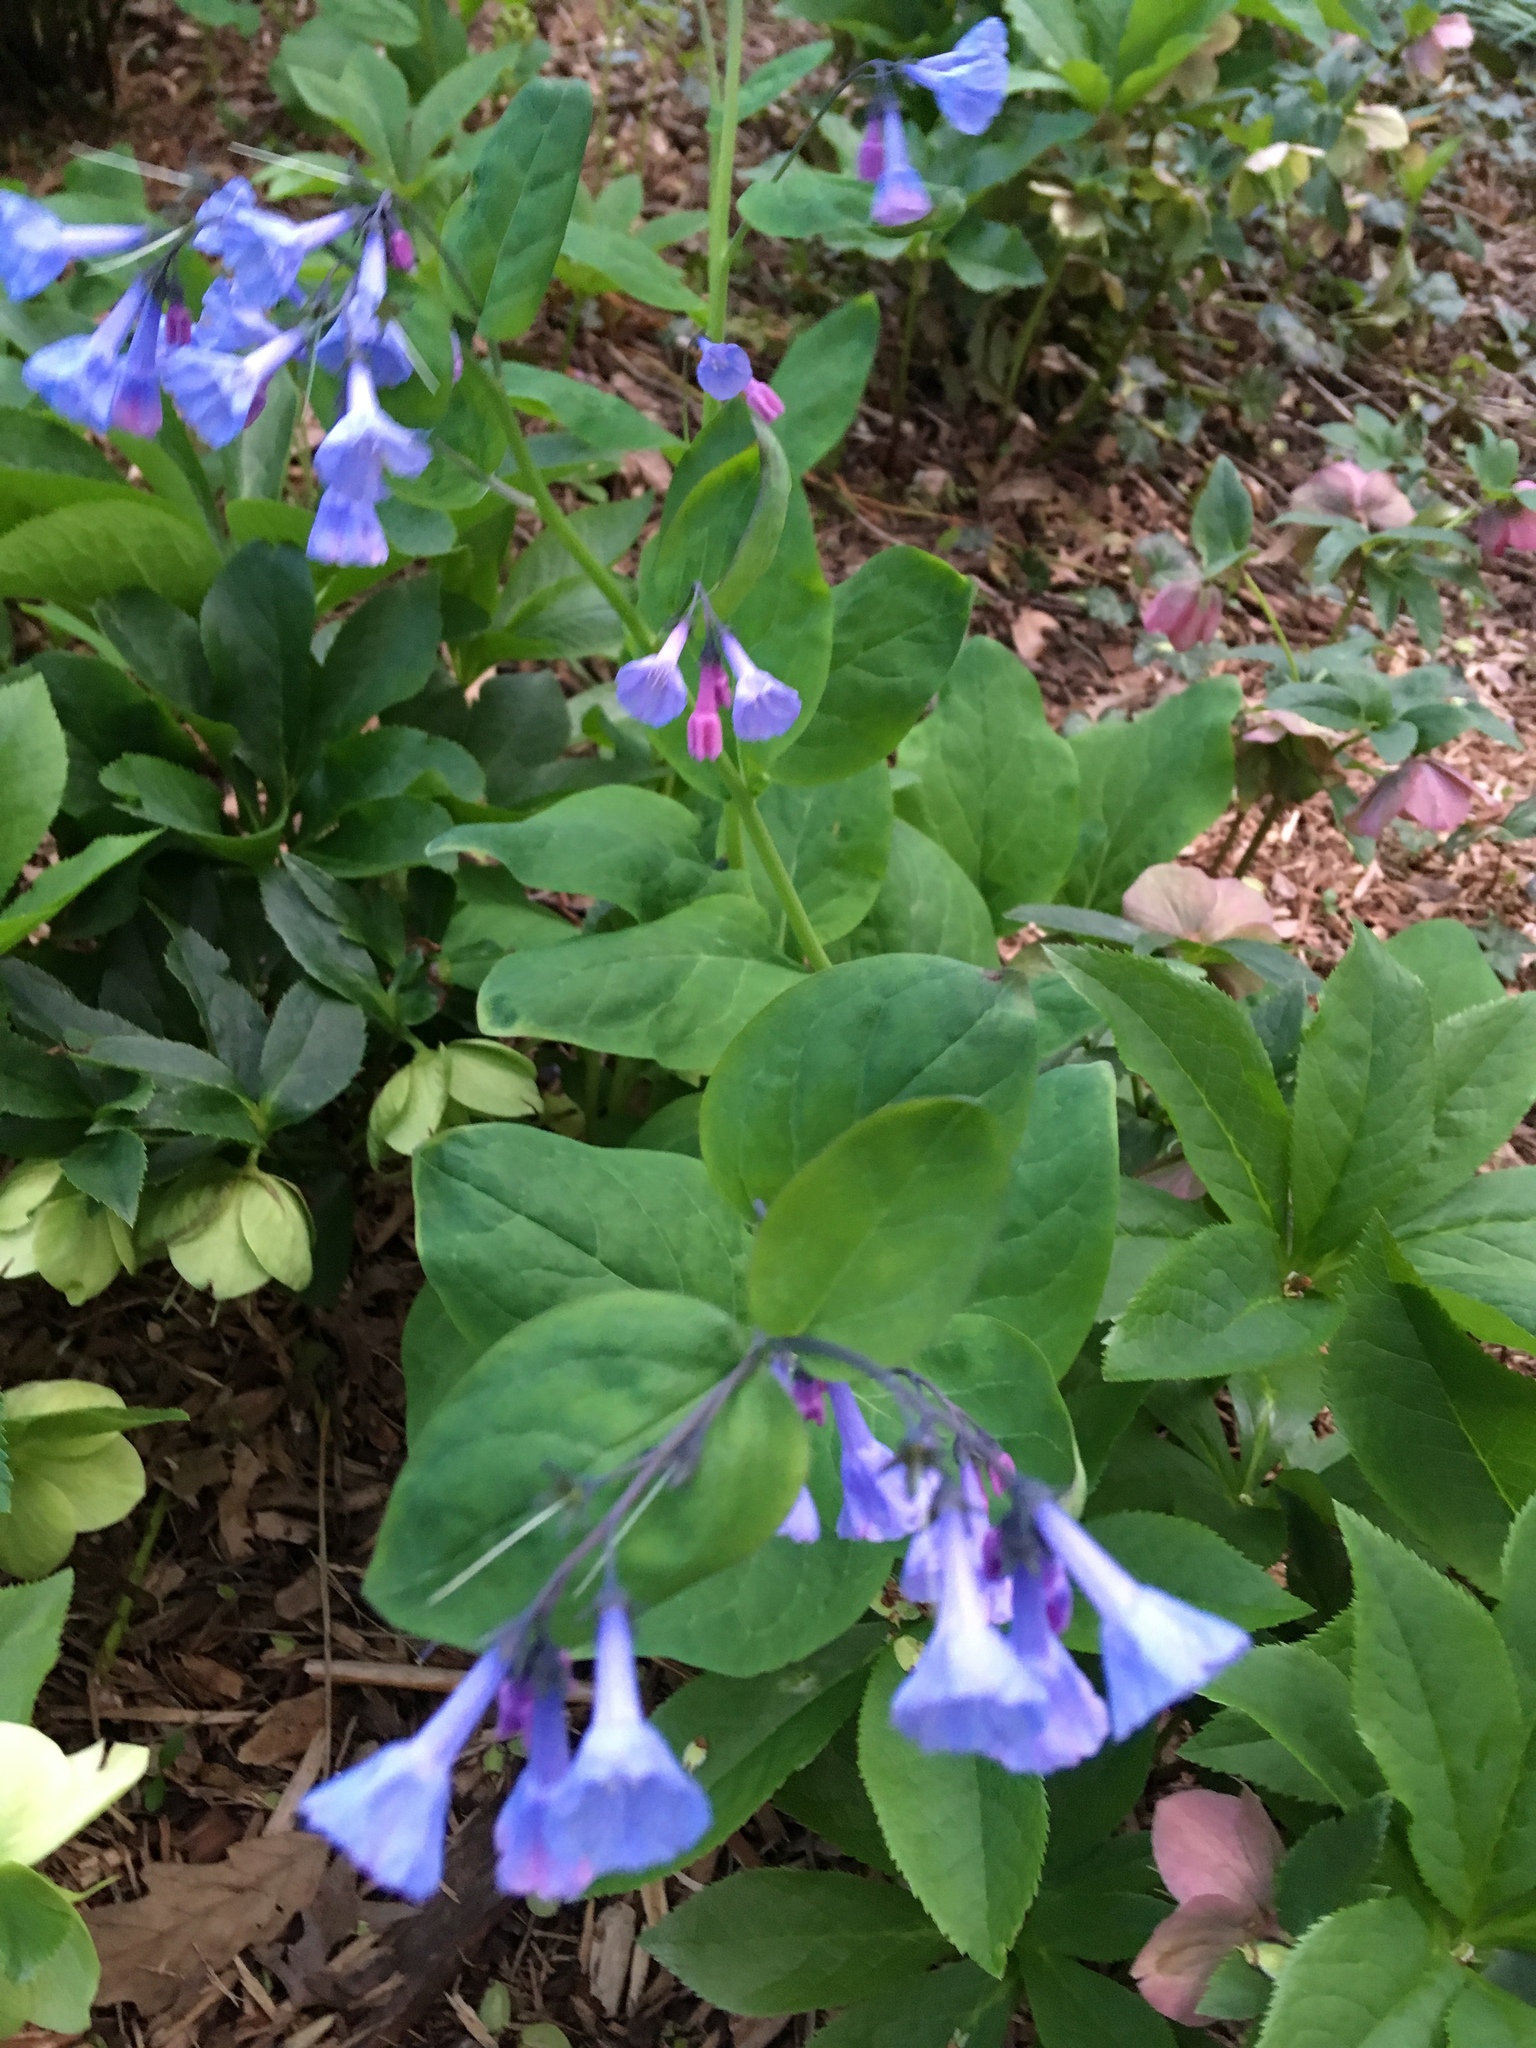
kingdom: Plantae
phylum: Tracheophyta
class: Magnoliopsida
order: Boraginales
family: Boraginaceae
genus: Mertensia
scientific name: Mertensia virginica
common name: Virginia bluebells
